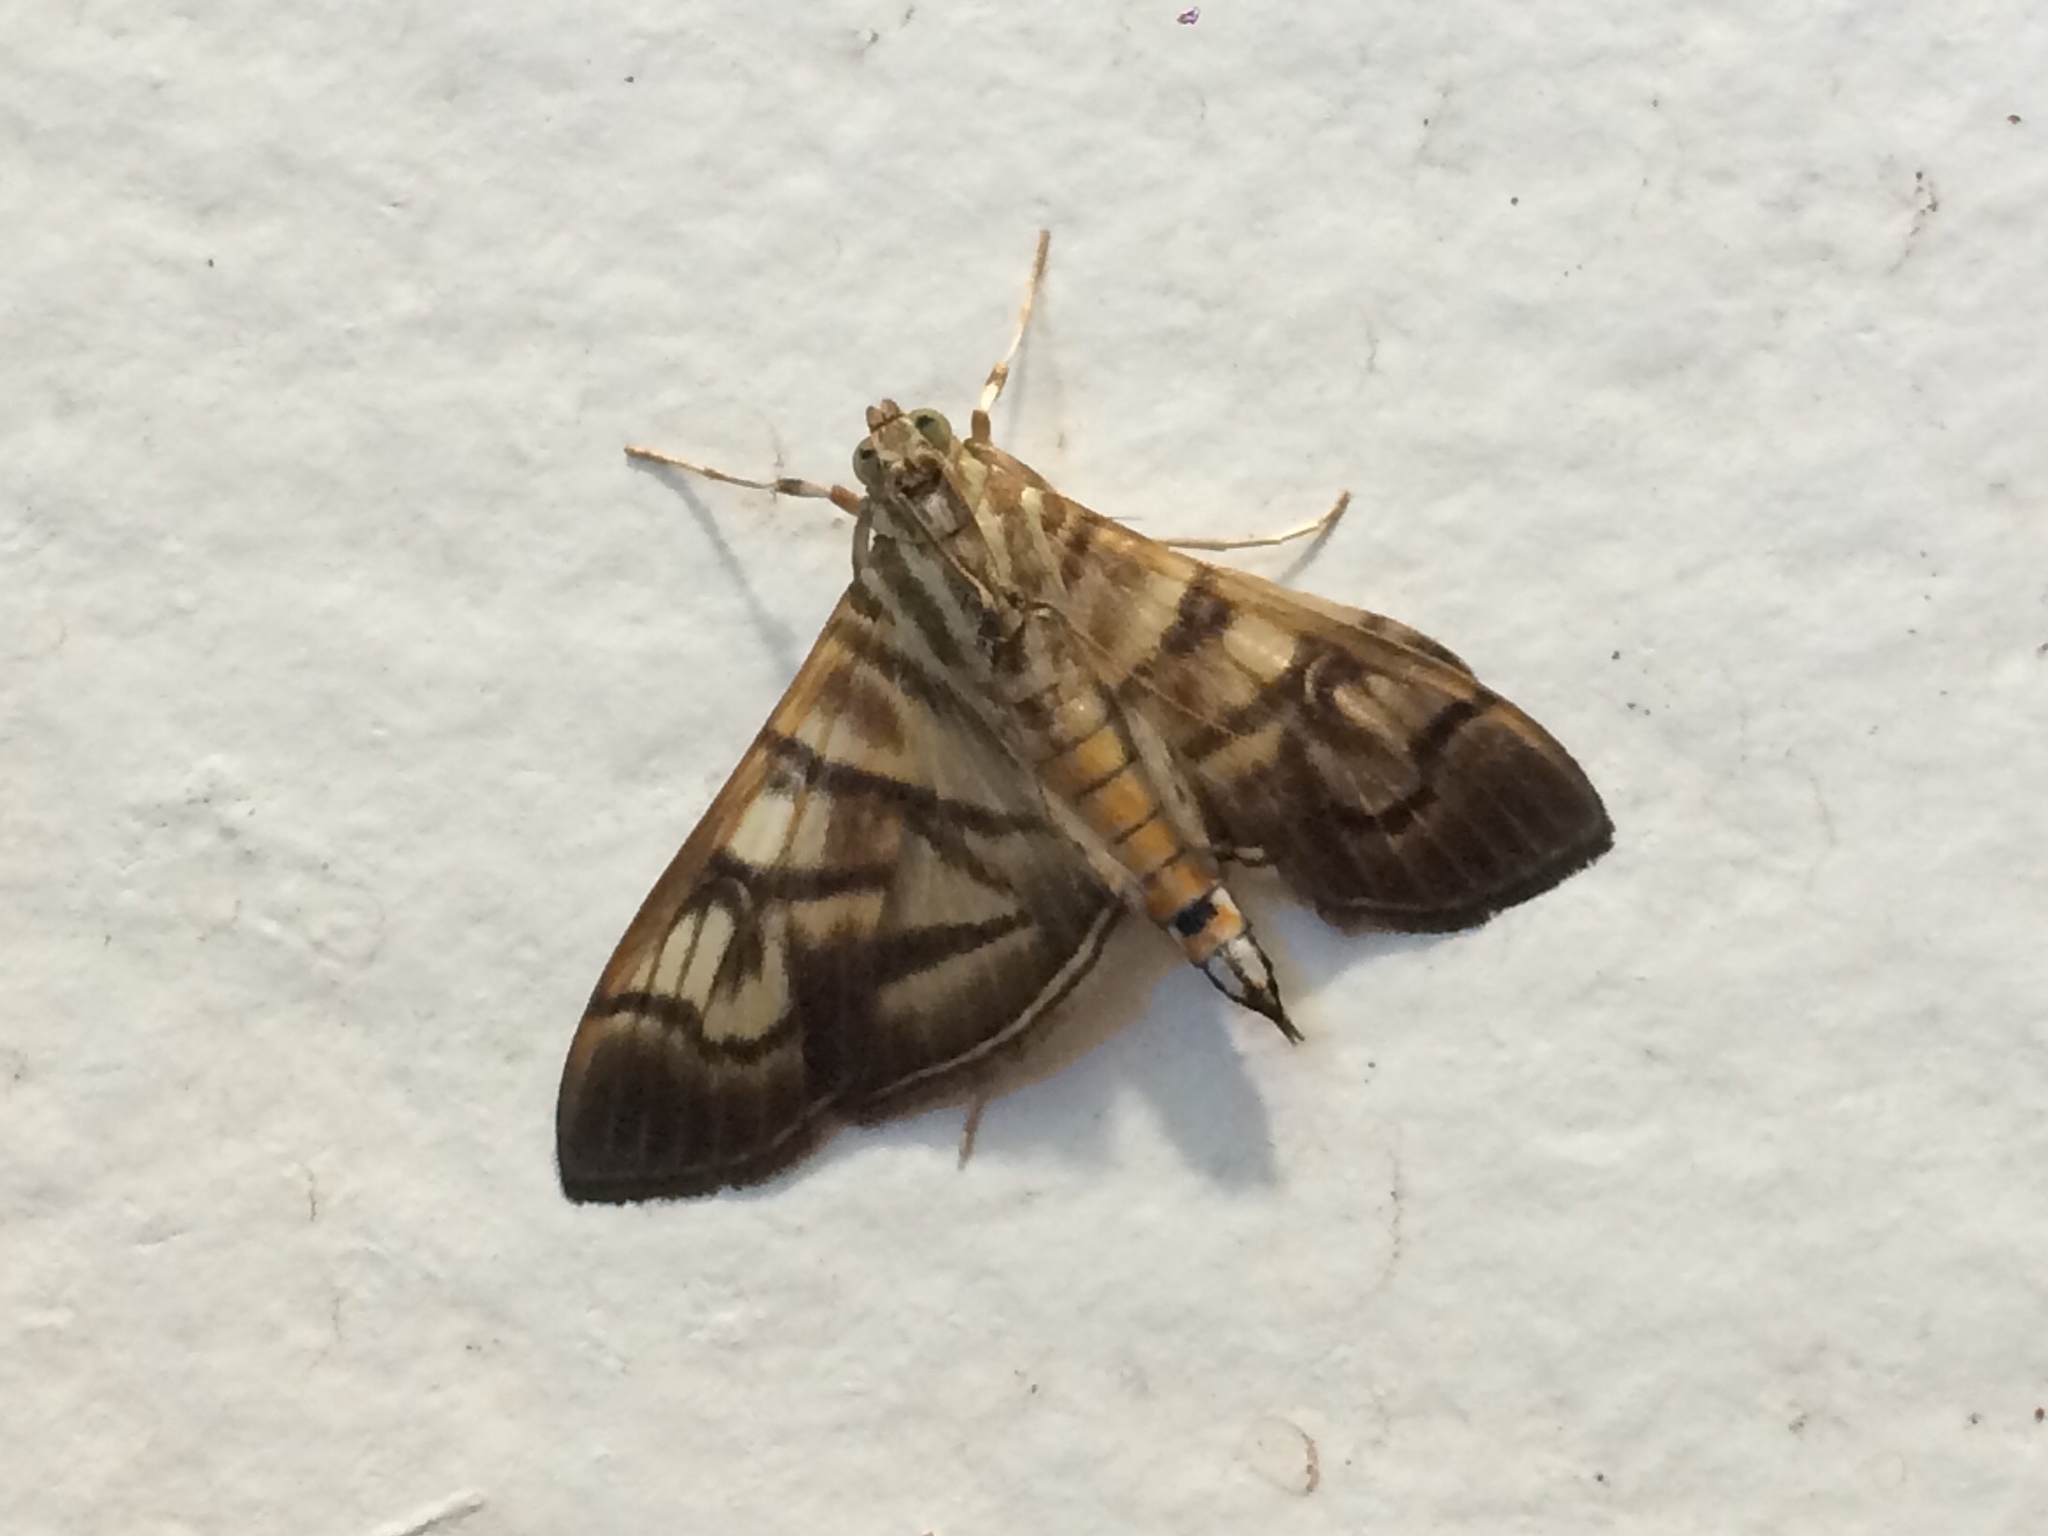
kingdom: Animalia
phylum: Arthropoda
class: Insecta
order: Lepidoptera
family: Crambidae
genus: Pilocrocis
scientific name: Pilocrocis lauralis
